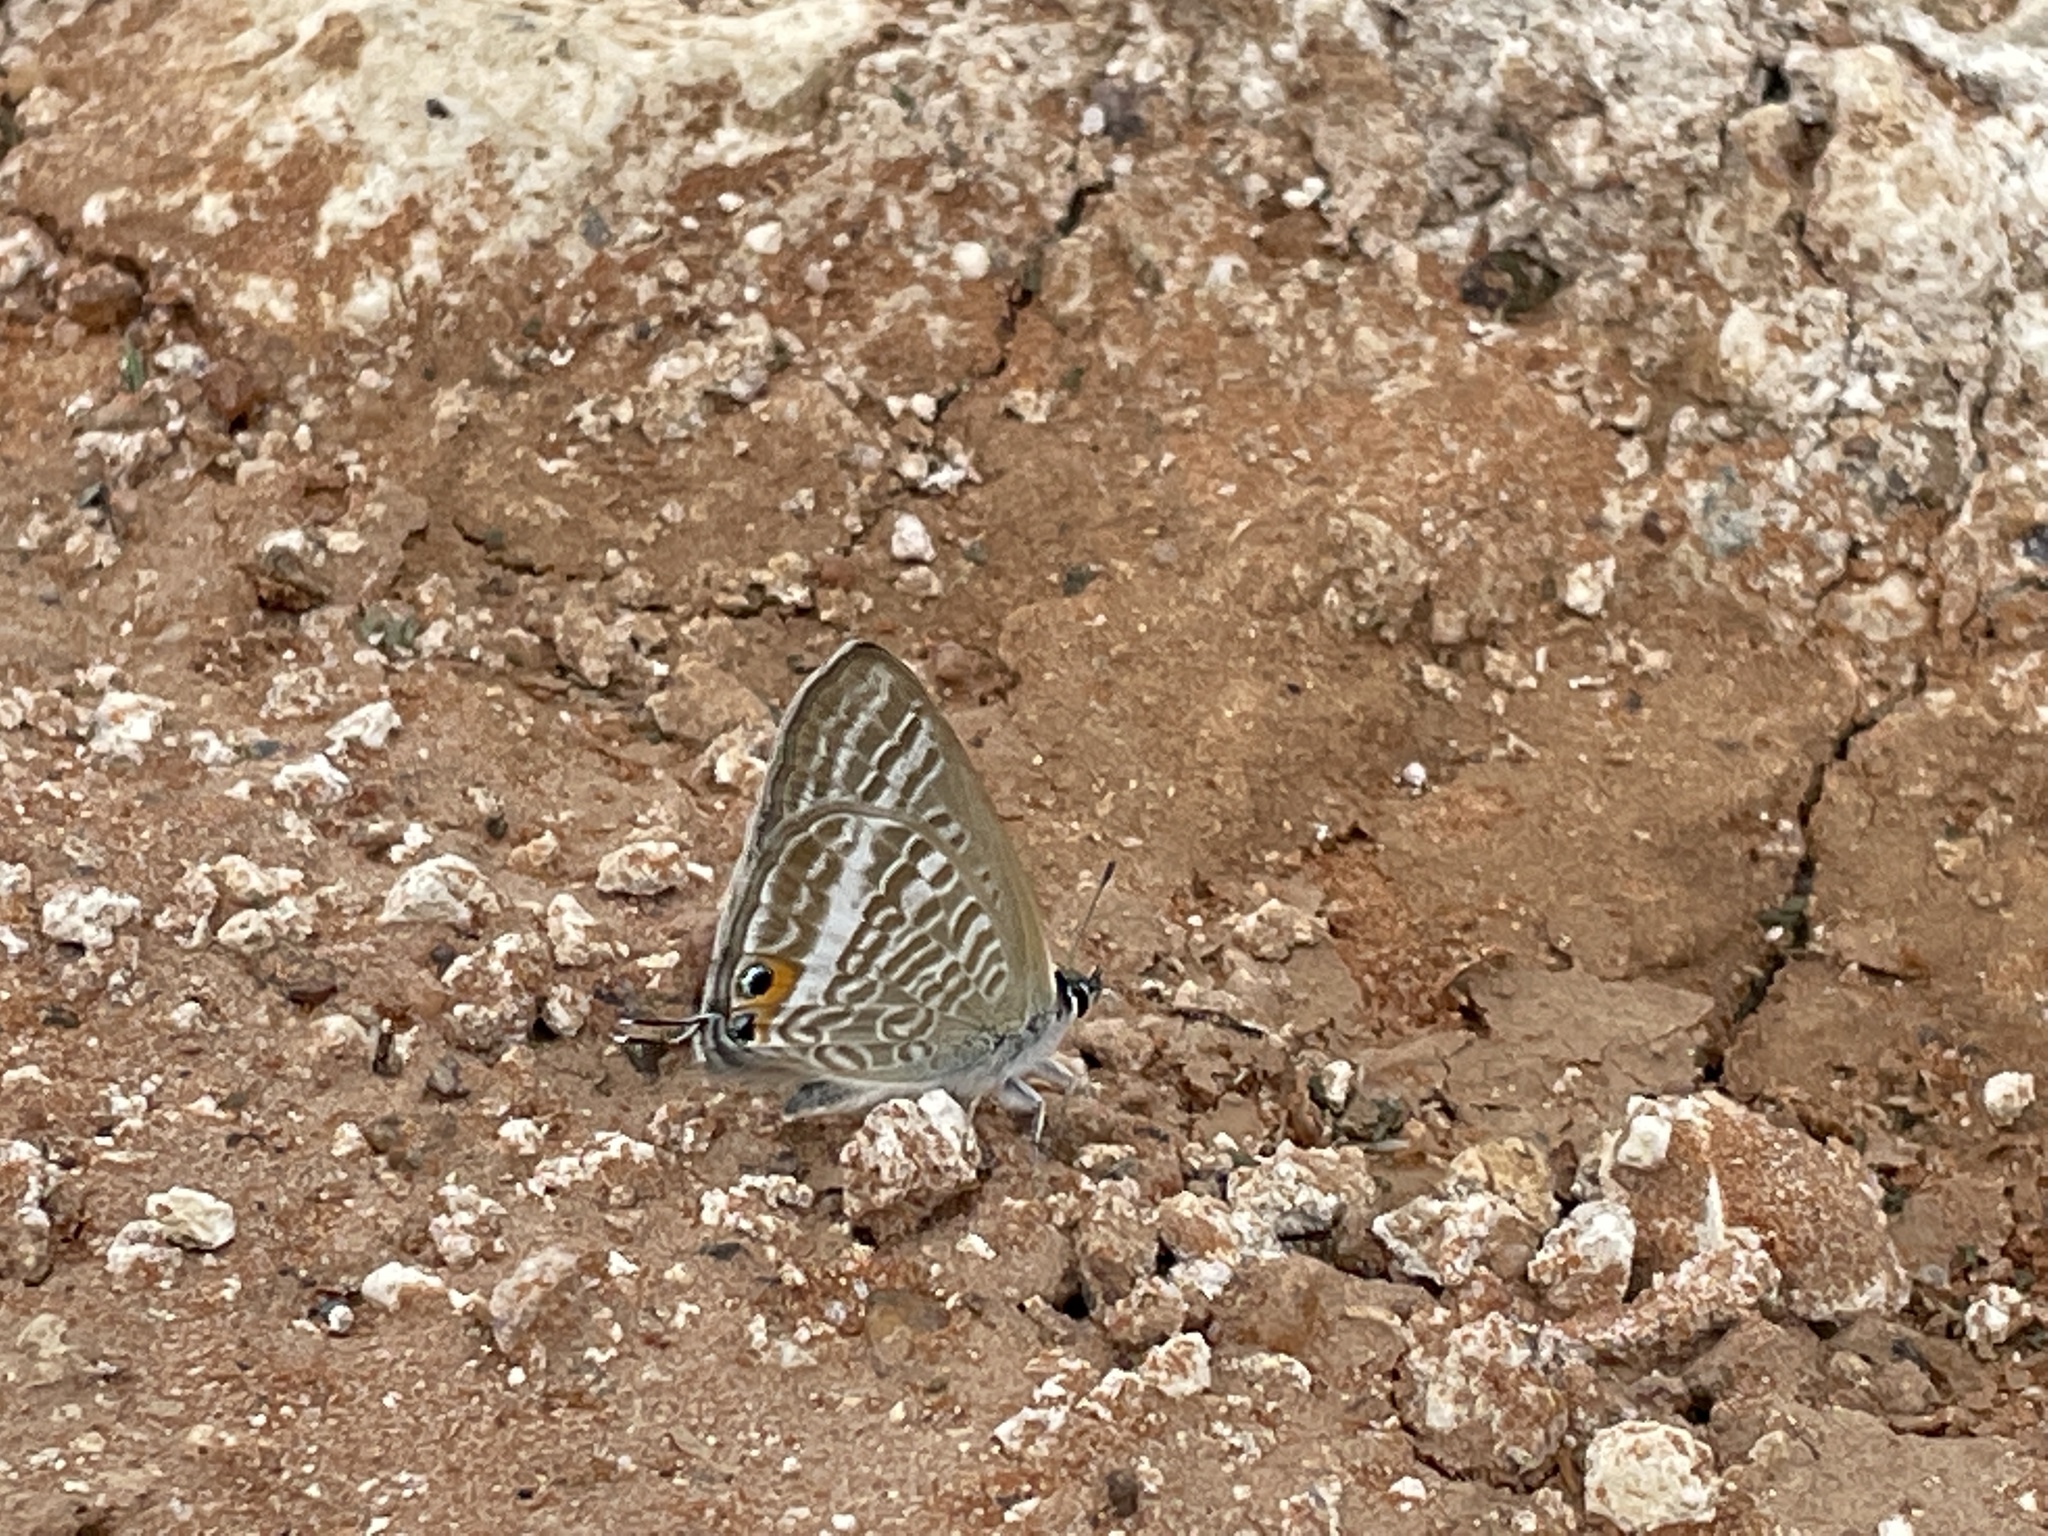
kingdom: Animalia
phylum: Arthropoda
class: Insecta
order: Lepidoptera
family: Lycaenidae
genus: Lampides
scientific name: Lampides boeticus
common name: Long-tailed blue
